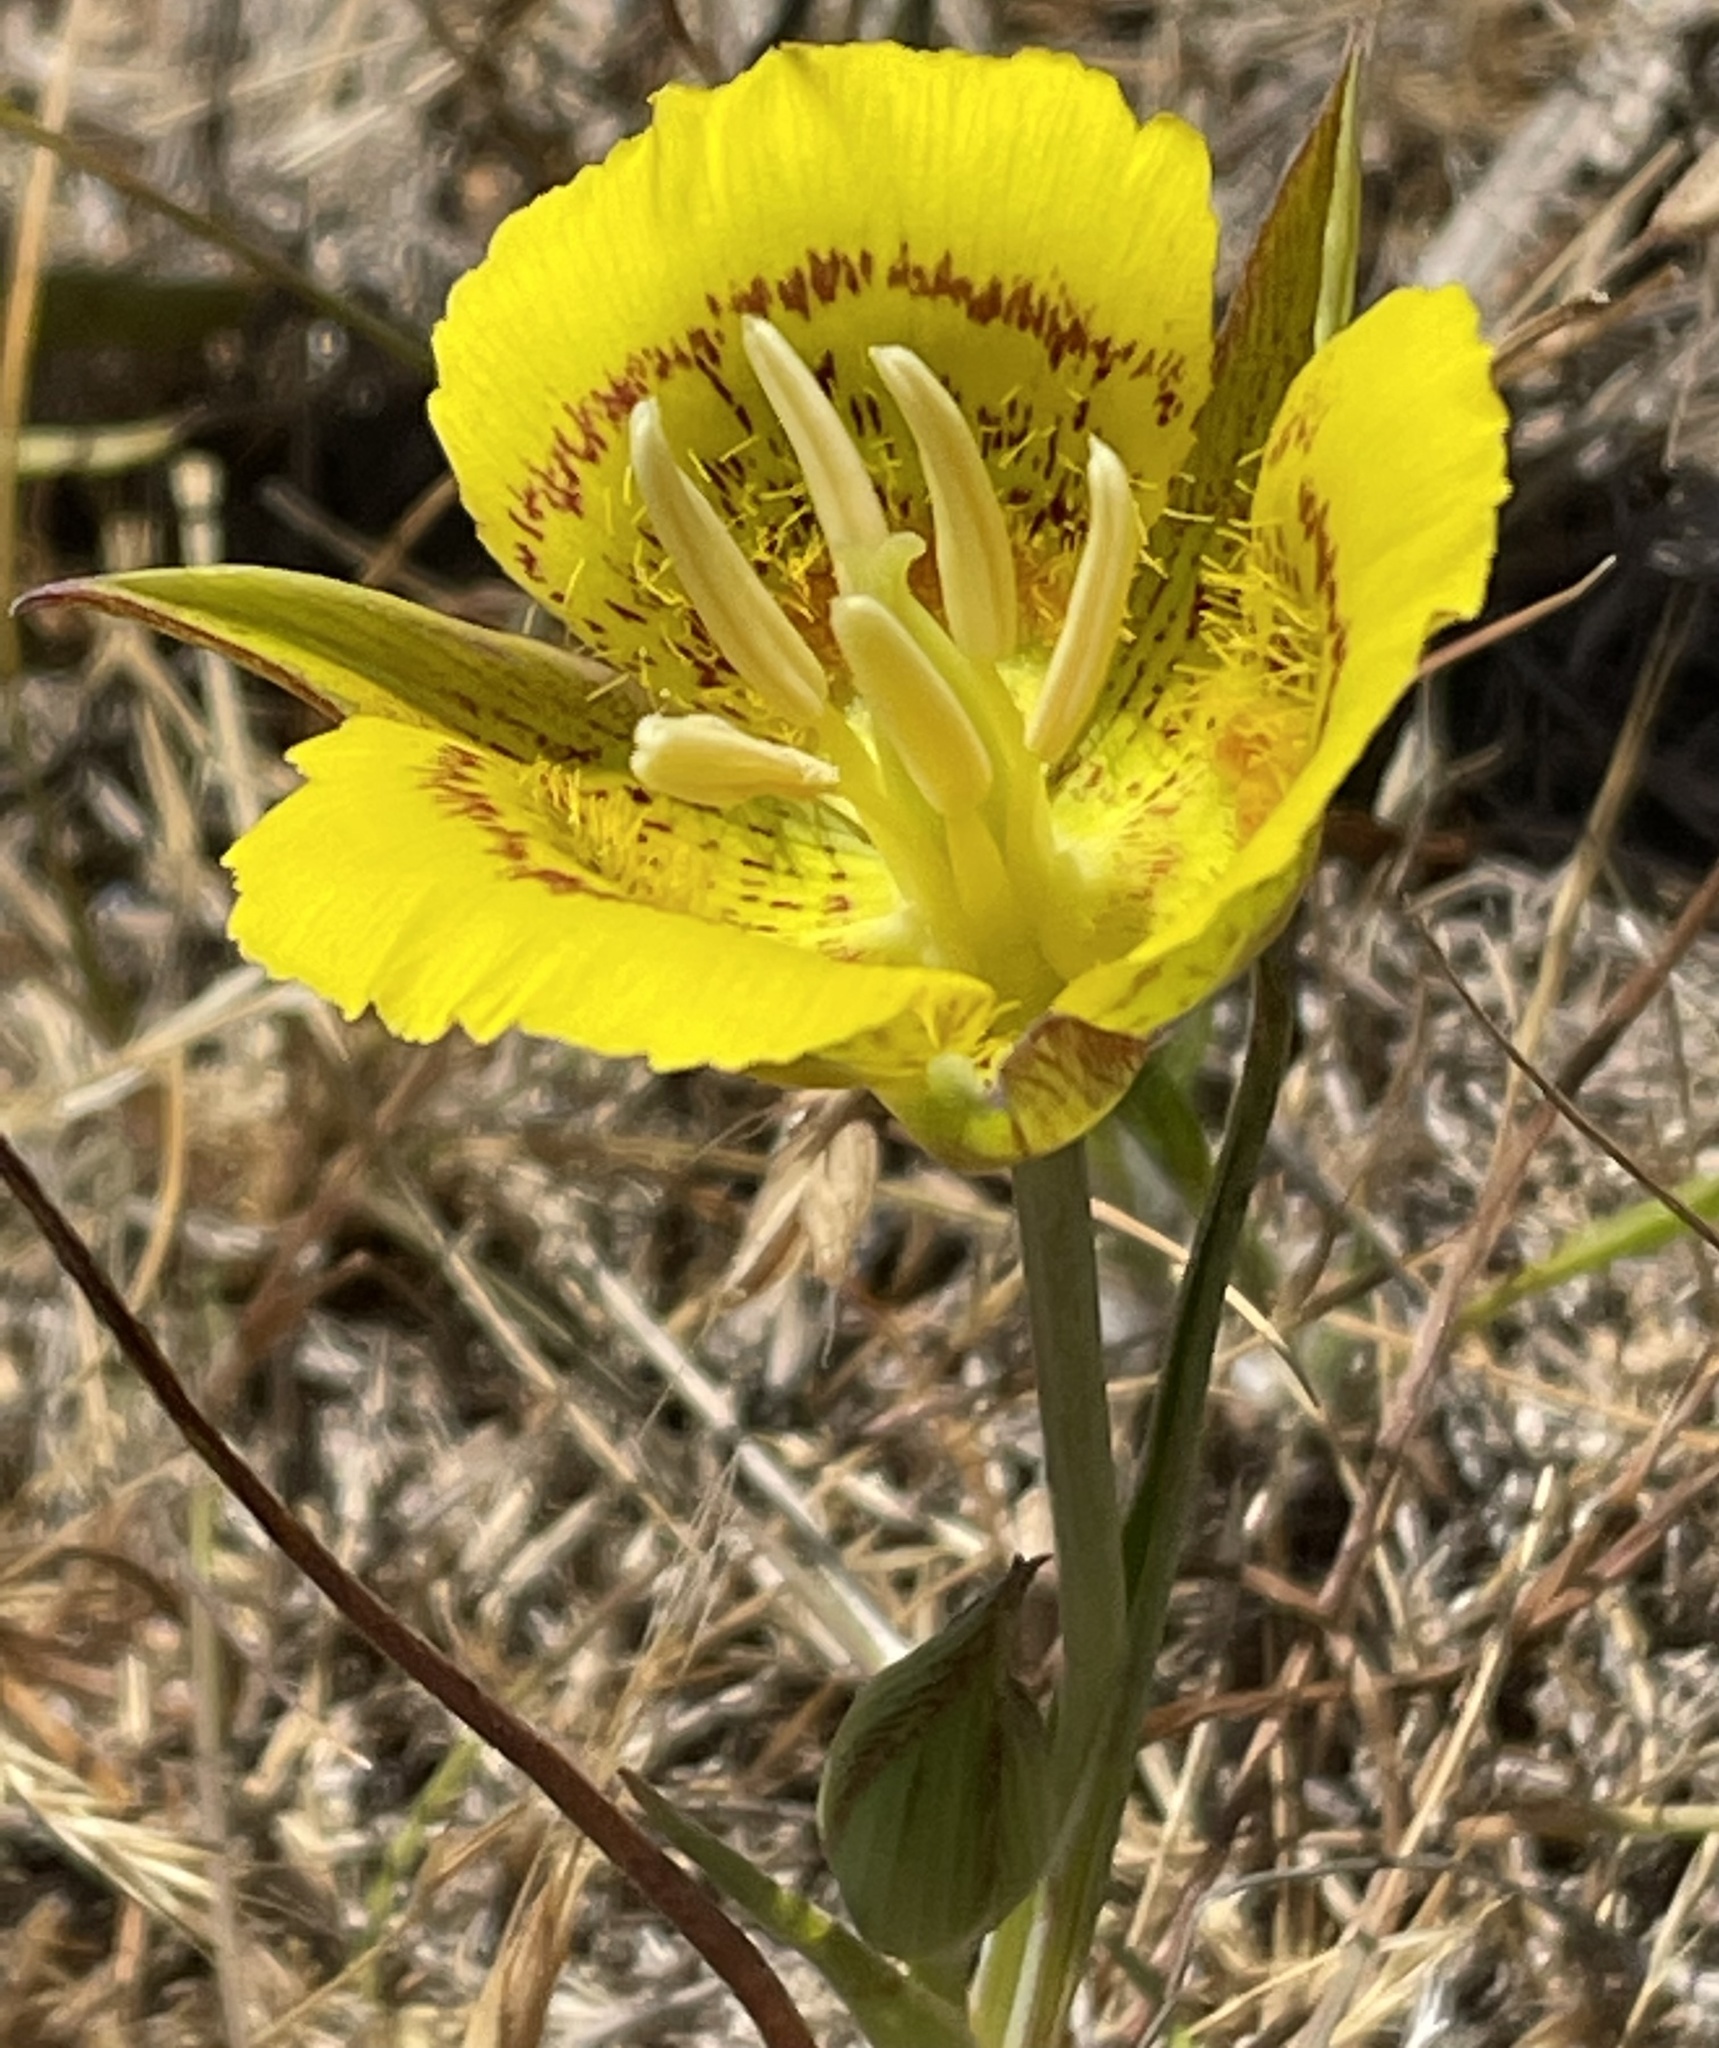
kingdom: Plantae
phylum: Tracheophyta
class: Liliopsida
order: Liliales
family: Liliaceae
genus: Calochortus
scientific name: Calochortus luteus
